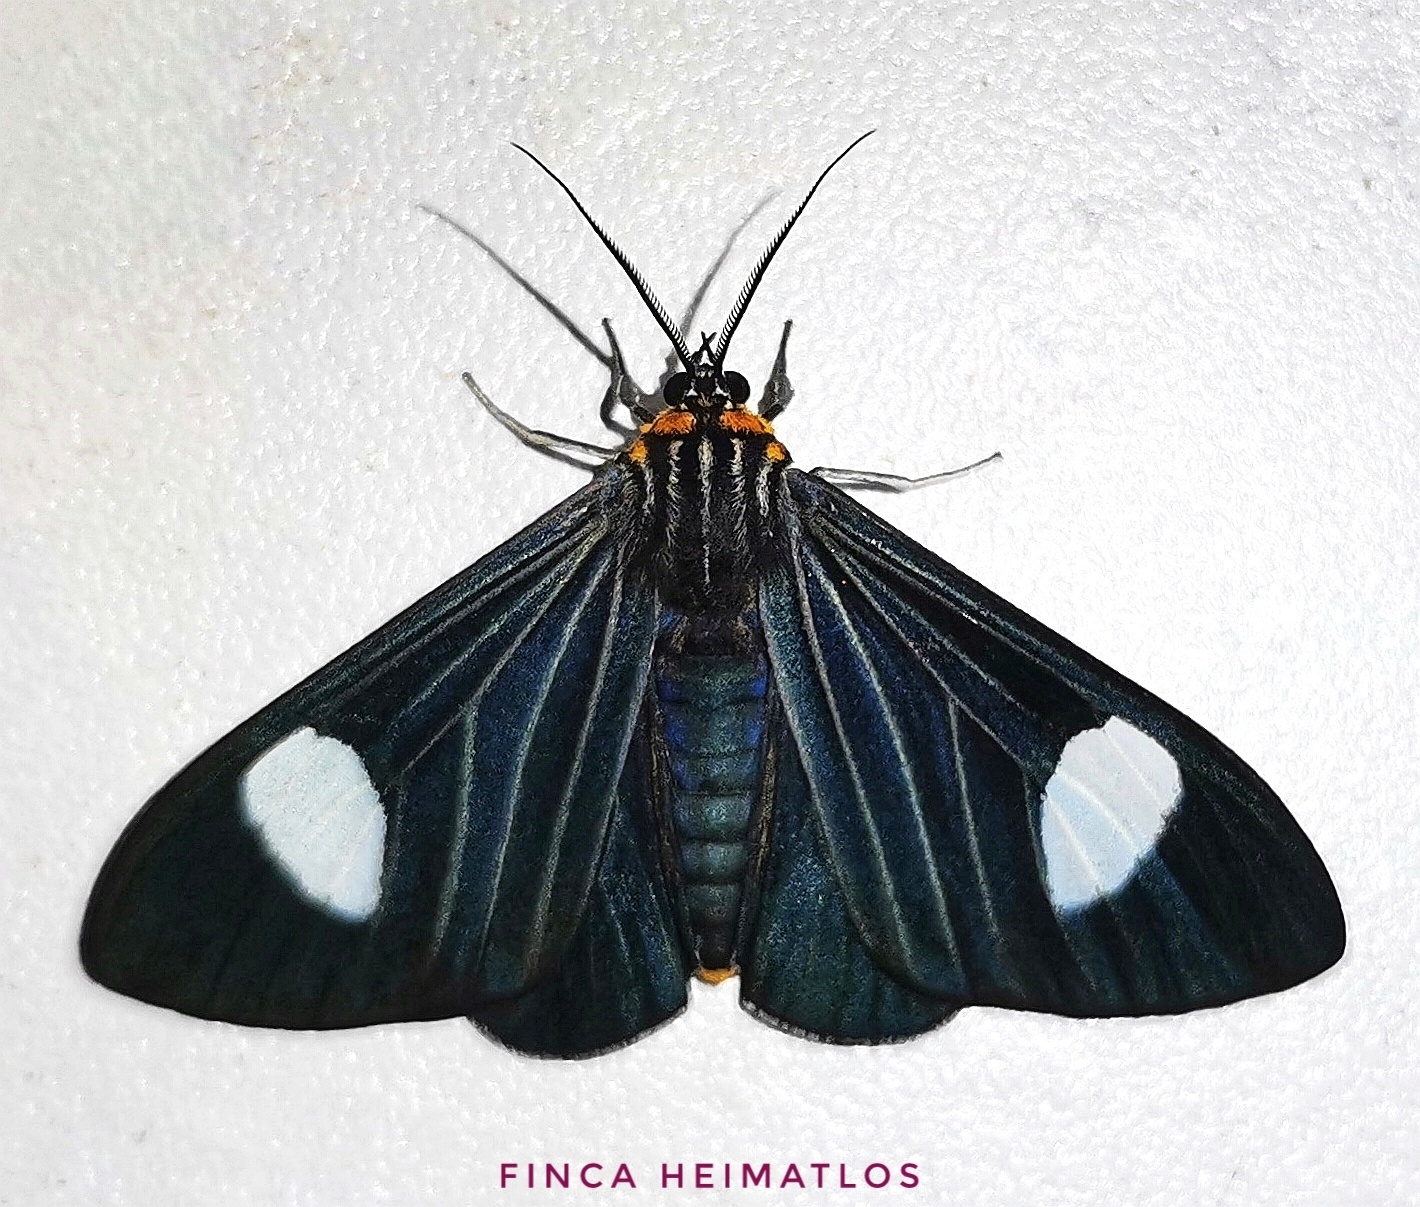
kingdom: Animalia
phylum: Arthropoda
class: Insecta
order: Lepidoptera
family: Erebidae
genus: Calodesma
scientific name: Calodesma collaris
